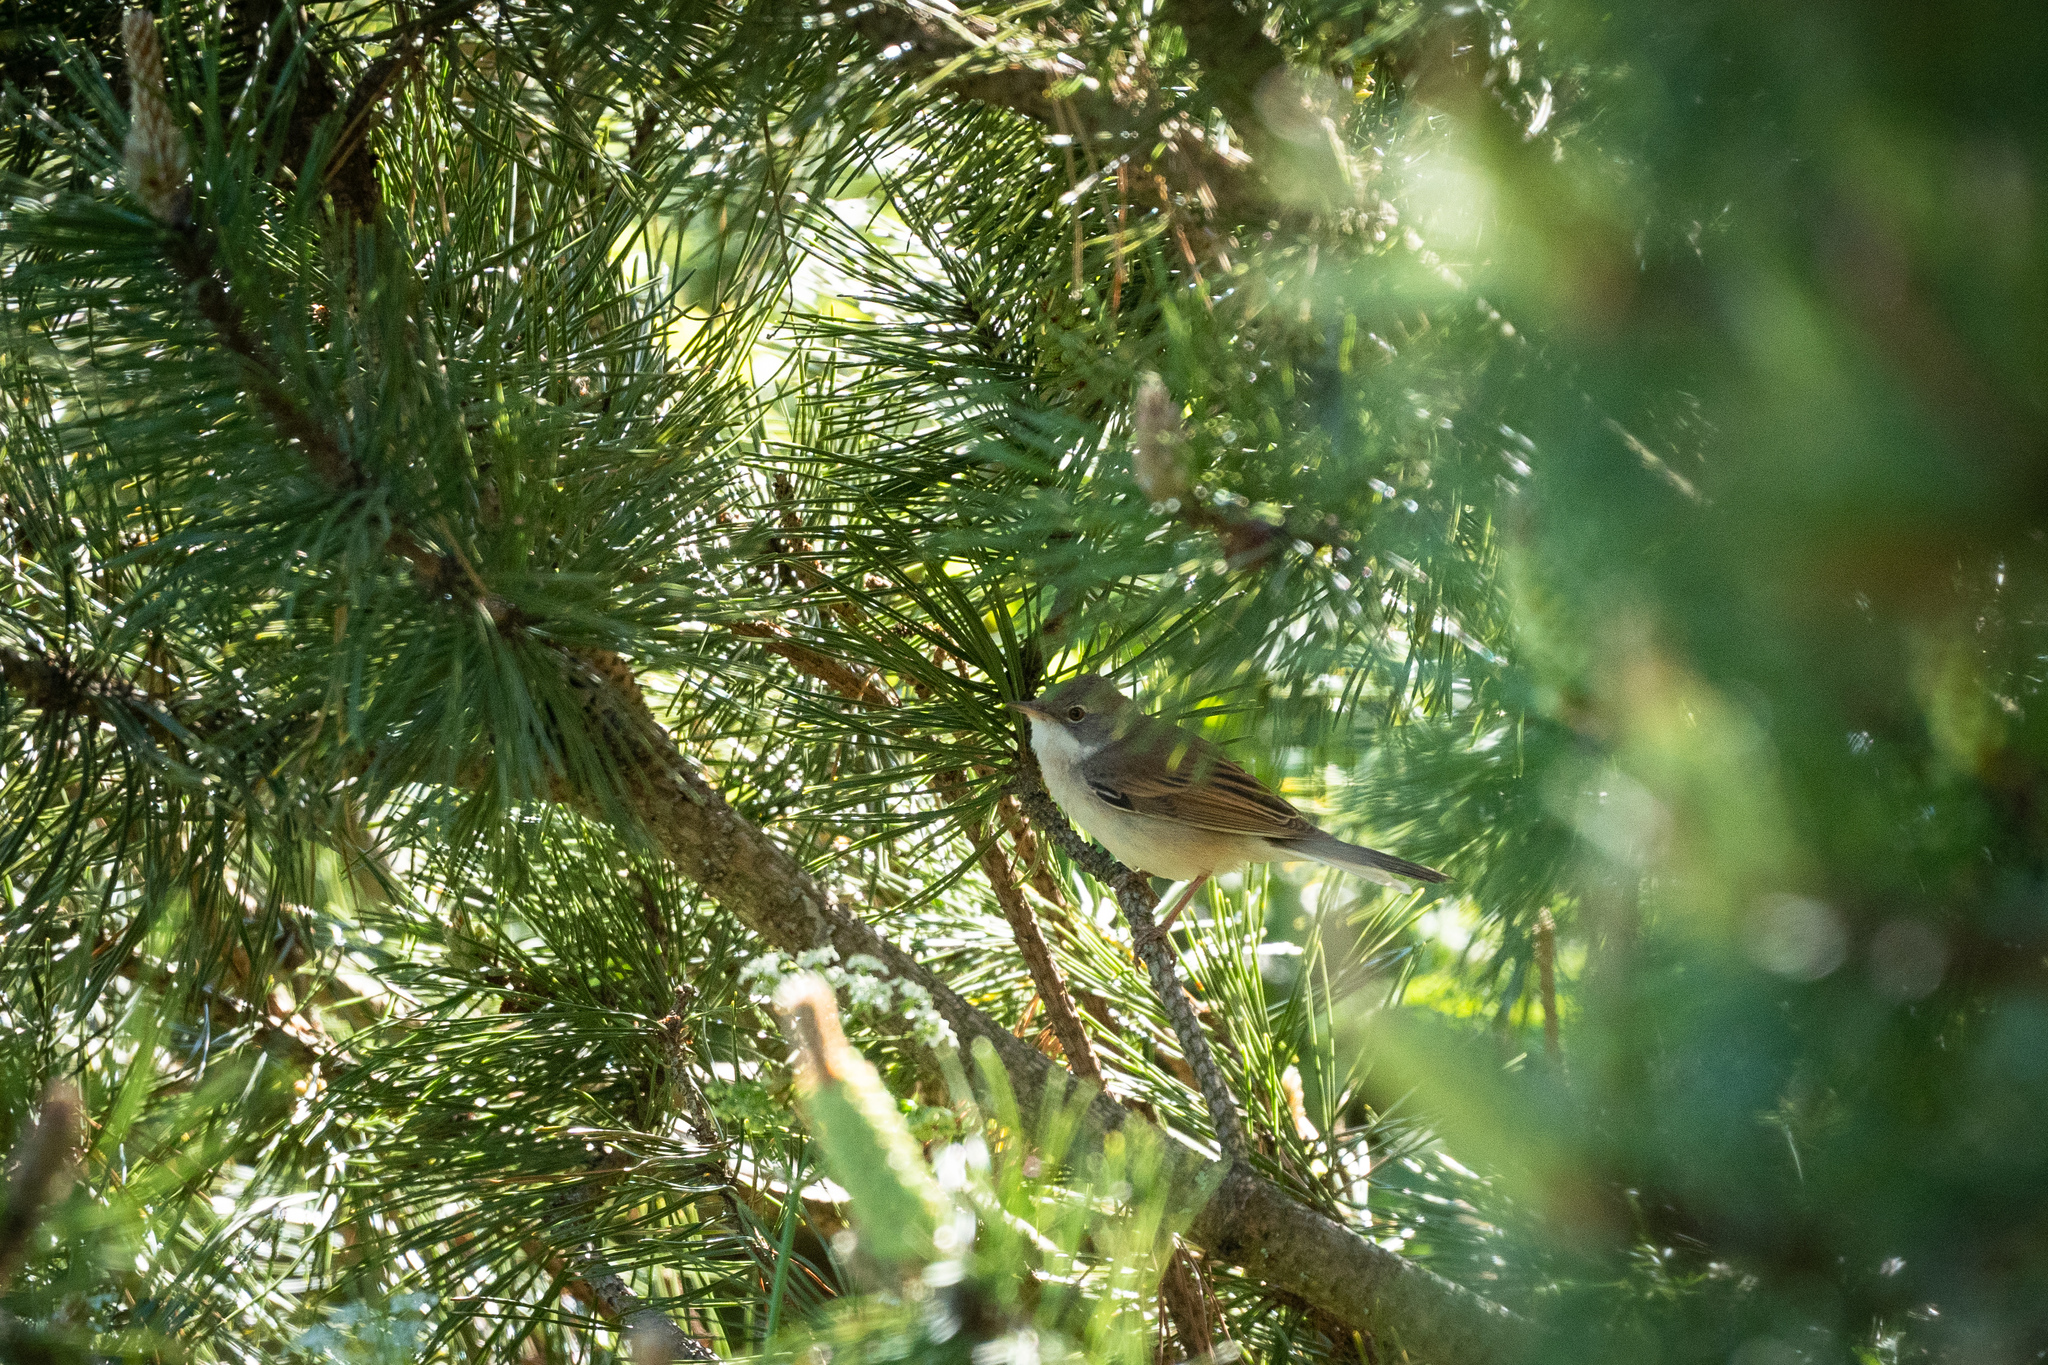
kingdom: Animalia
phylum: Chordata
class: Aves
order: Passeriformes
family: Sylviidae
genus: Sylvia
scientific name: Sylvia communis
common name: Common whitethroat
